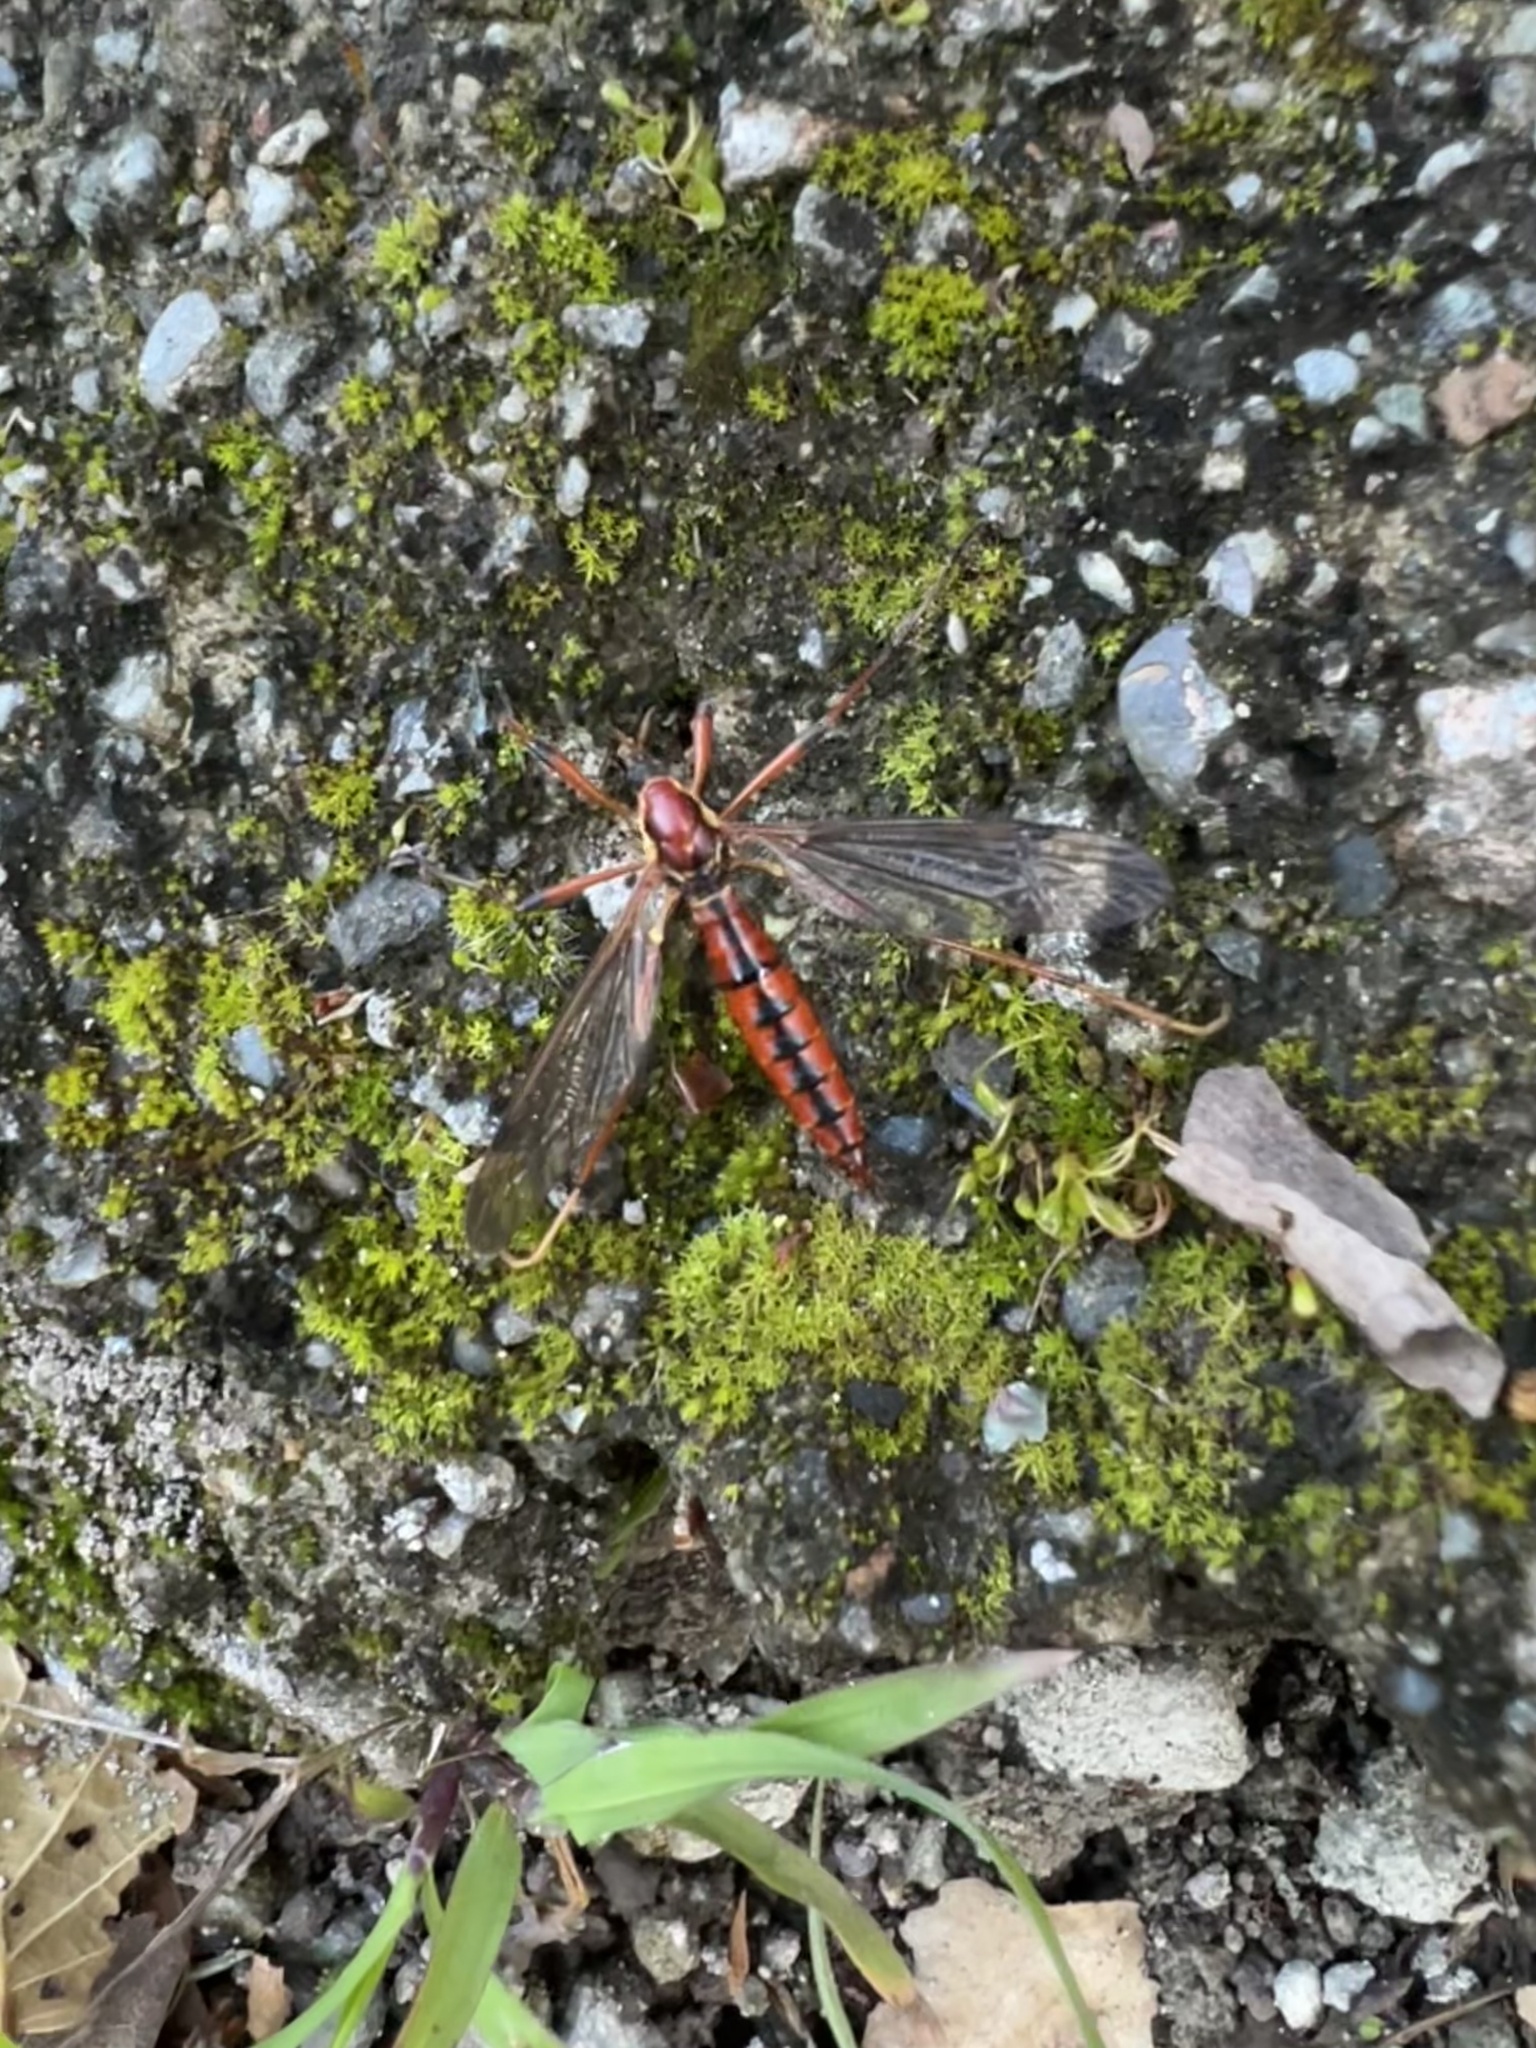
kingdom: Animalia
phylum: Arthropoda
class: Insecta
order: Diptera
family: Tipulidae
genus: Phoroctenia
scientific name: Phoroctenia vittata
